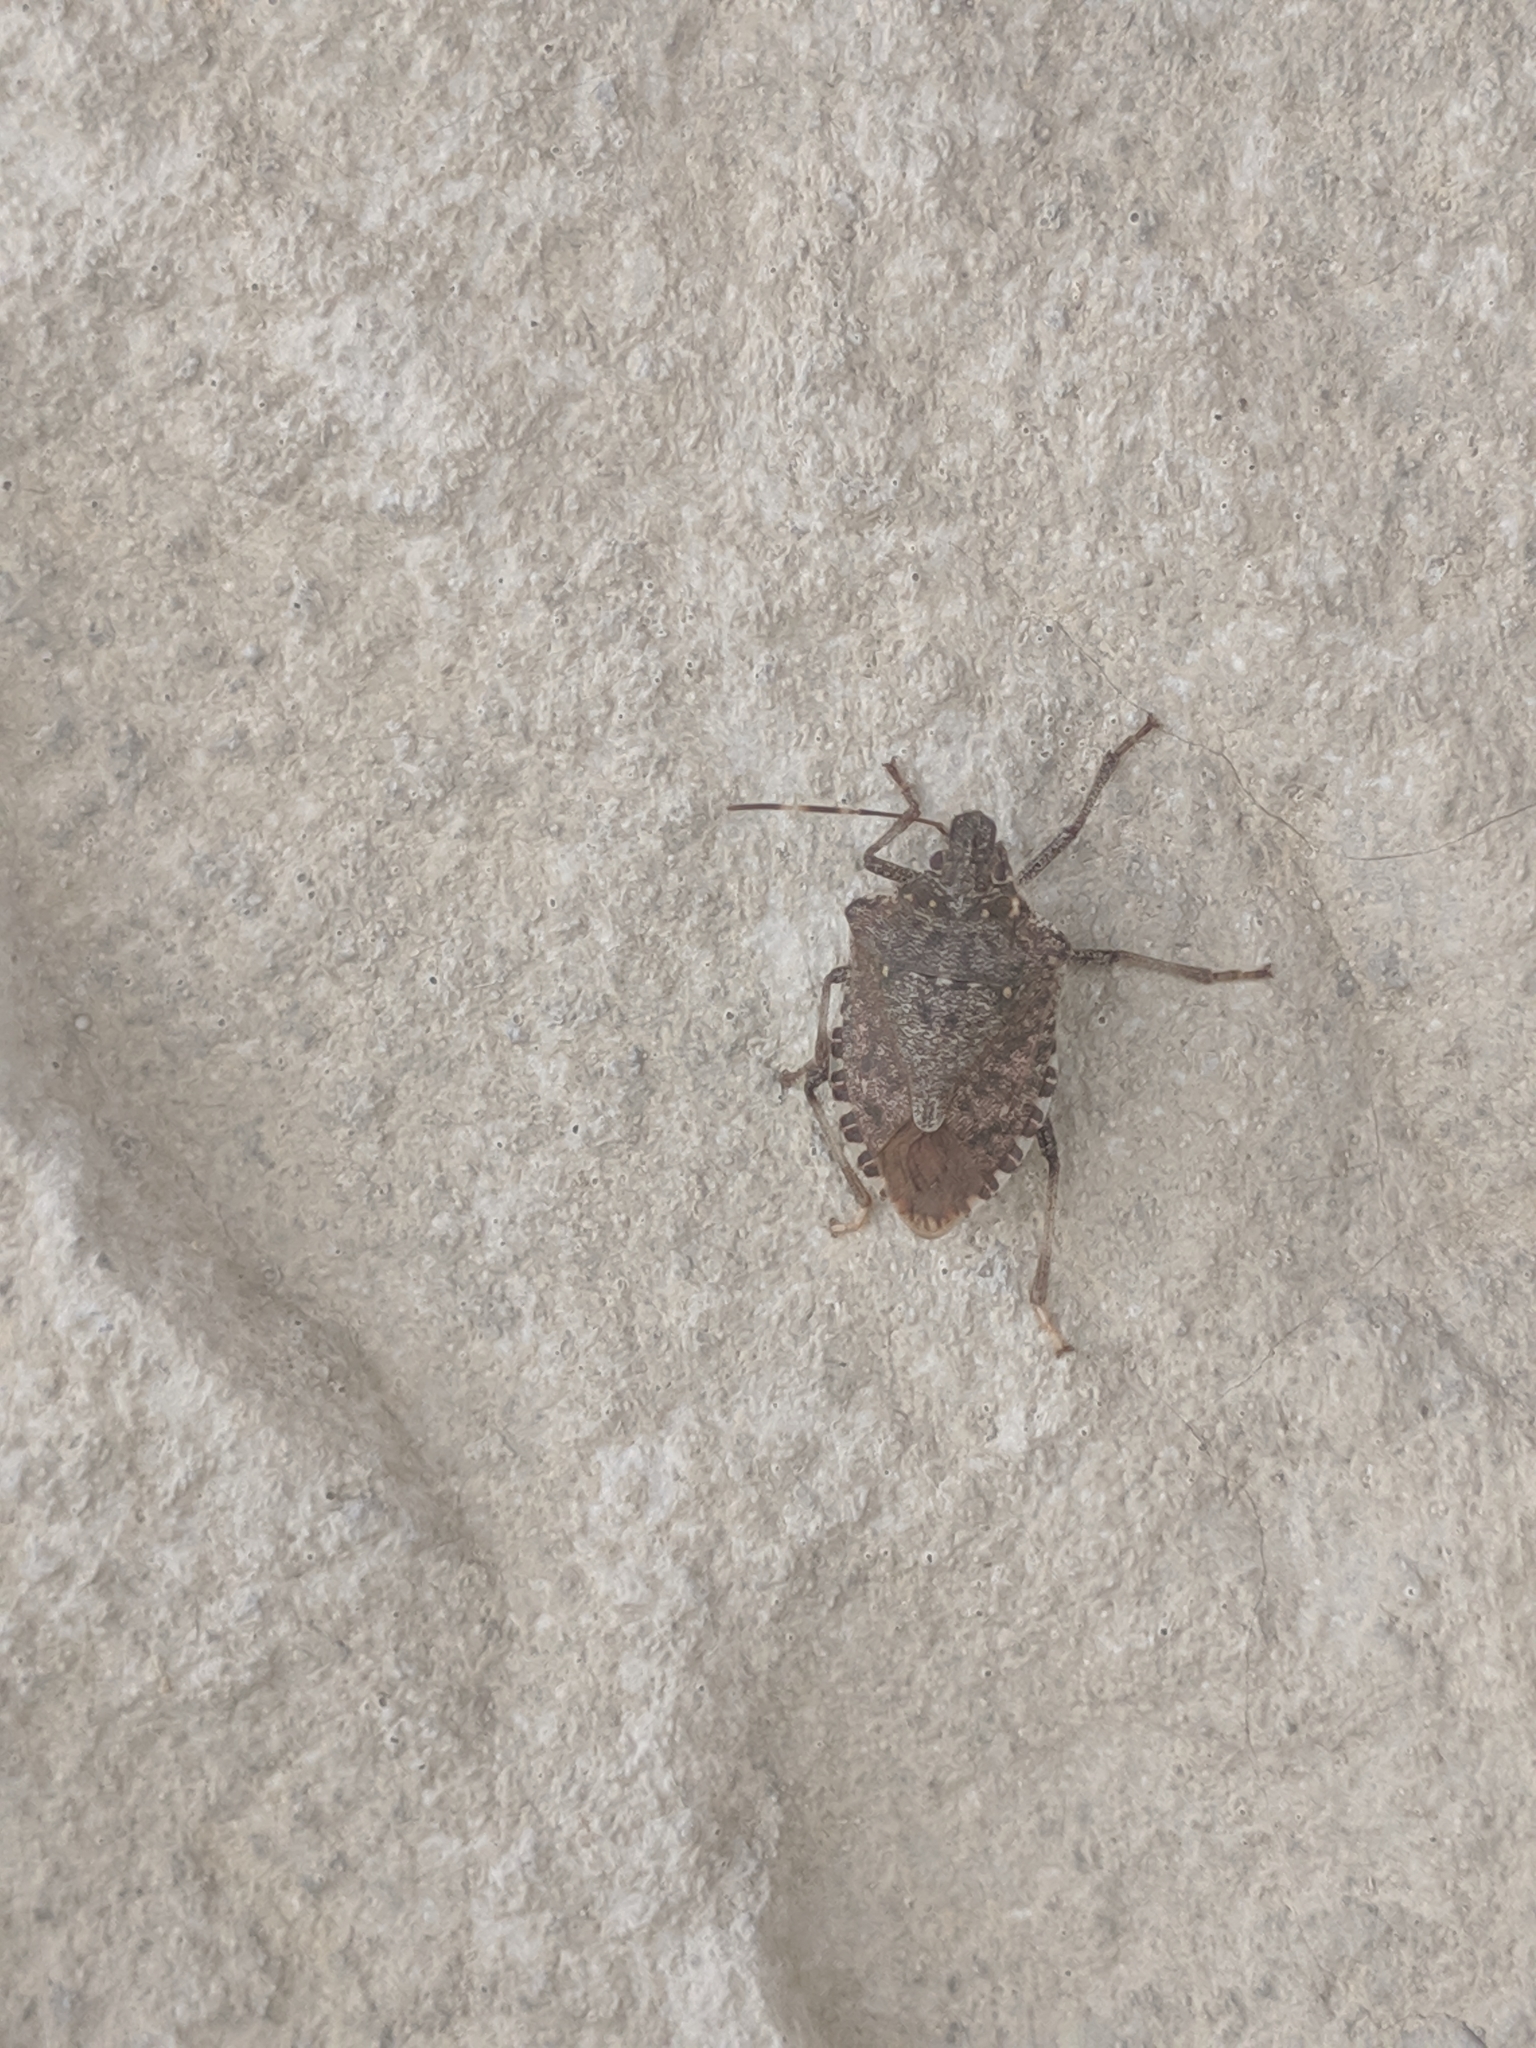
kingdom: Animalia
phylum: Arthropoda
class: Insecta
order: Hemiptera
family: Pentatomidae
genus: Halyomorpha
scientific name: Halyomorpha halys
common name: Brown marmorated stink bug
